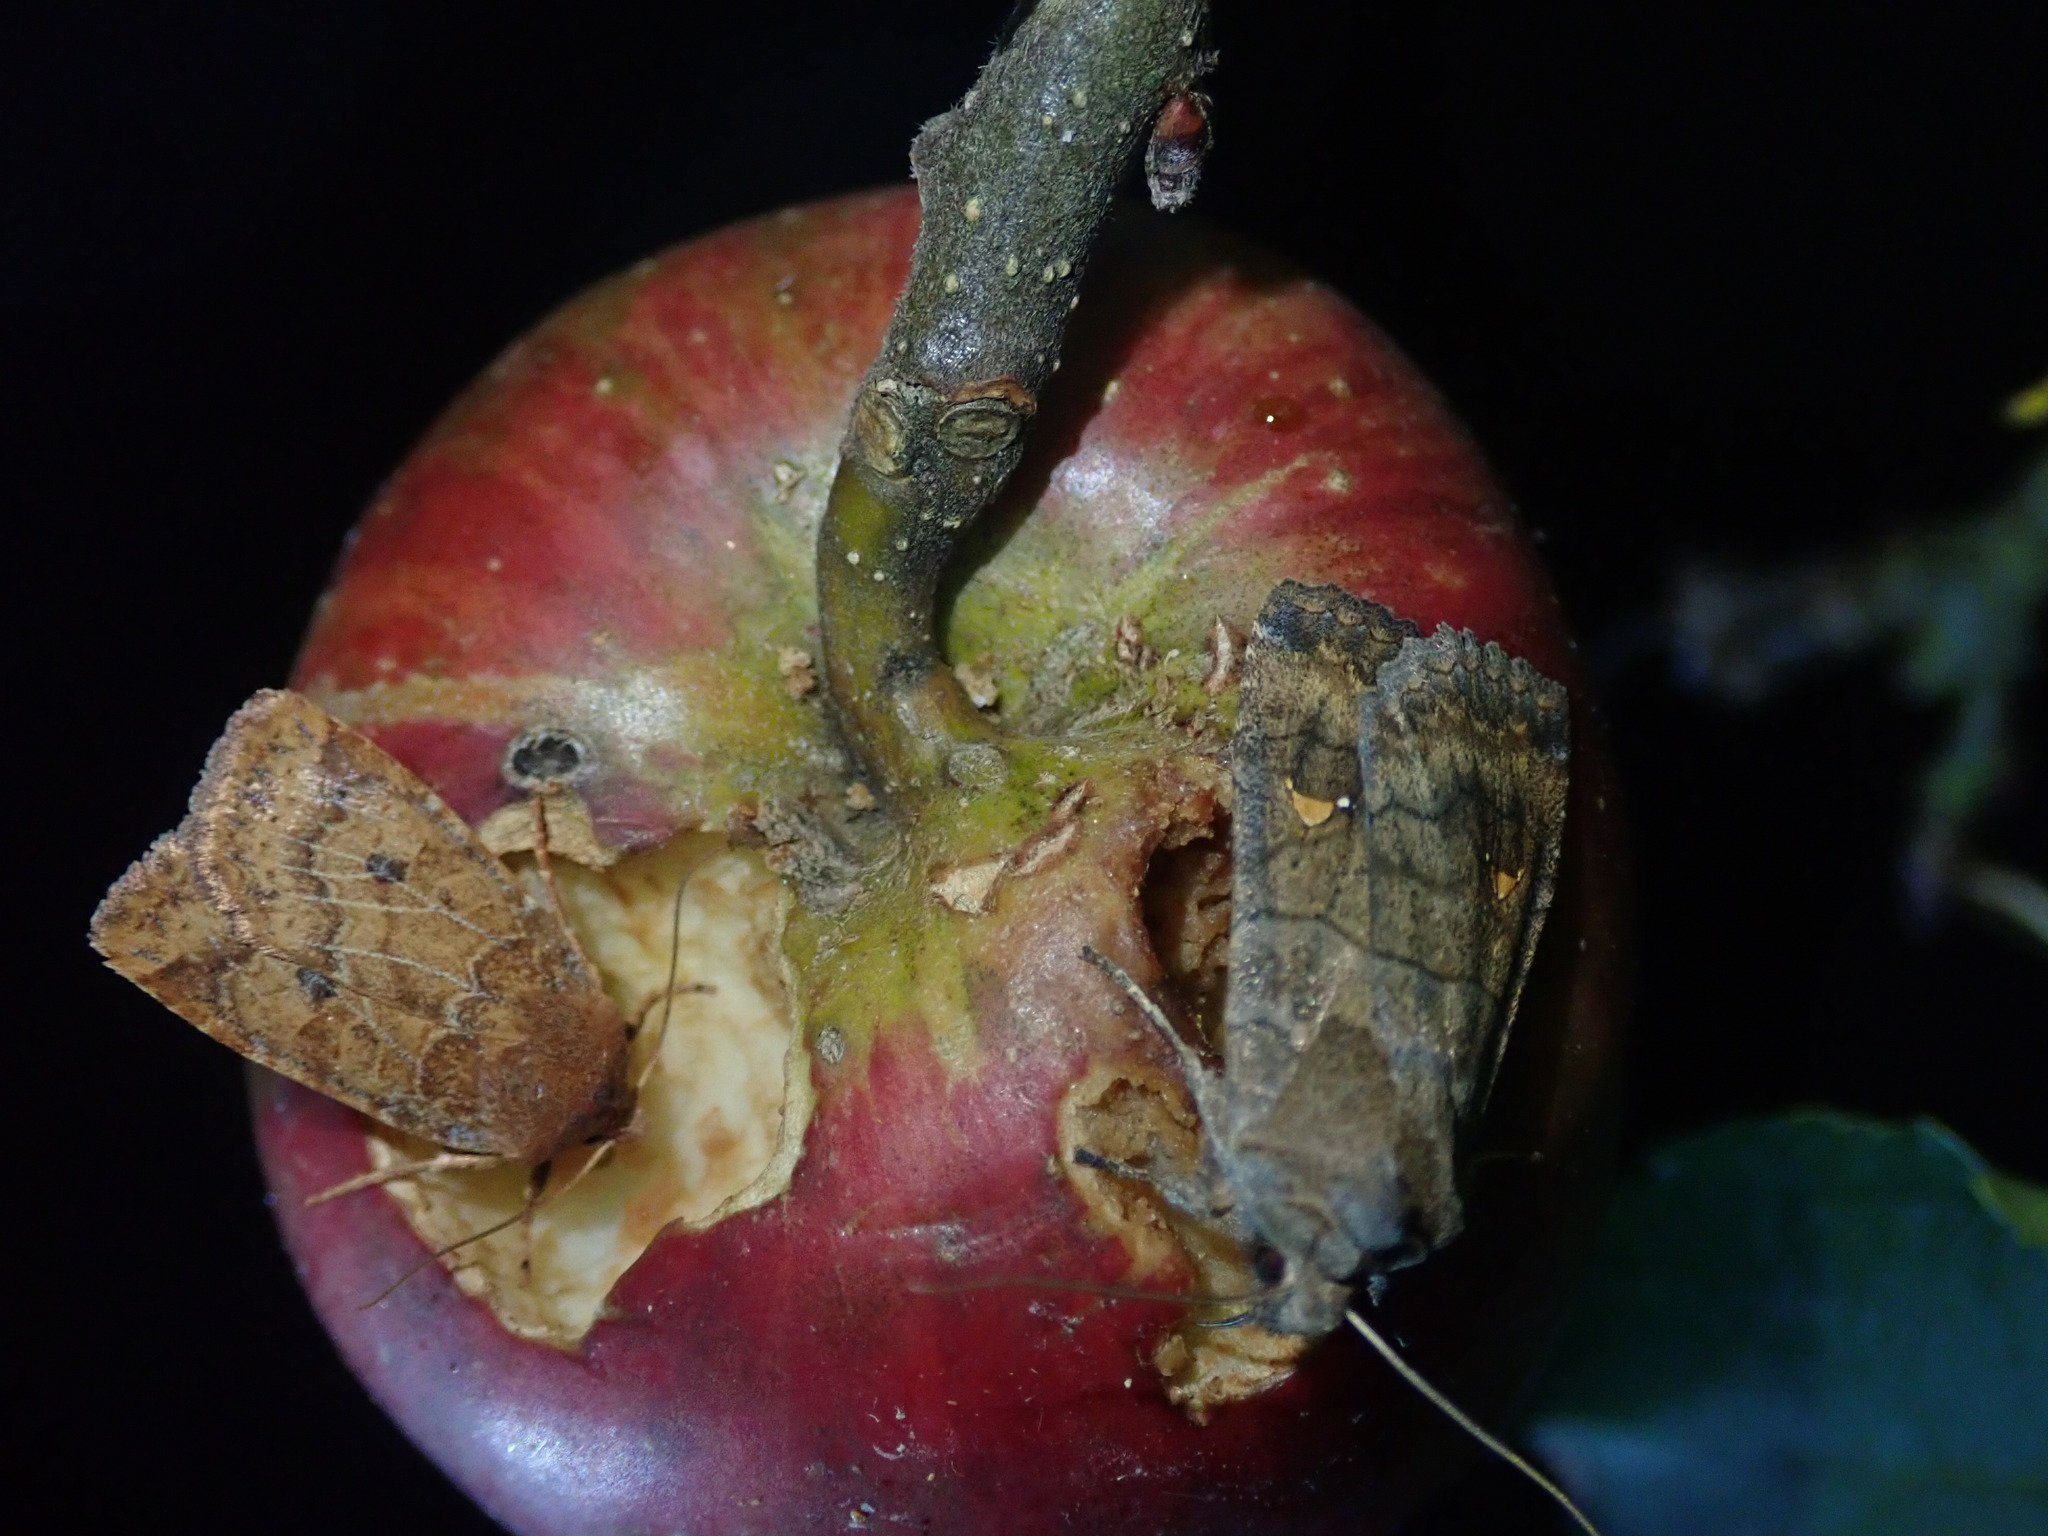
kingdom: Animalia
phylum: Arthropoda
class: Insecta
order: Lepidoptera
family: Noctuidae
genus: Eupsilia
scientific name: Eupsilia transversa
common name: Satellite
